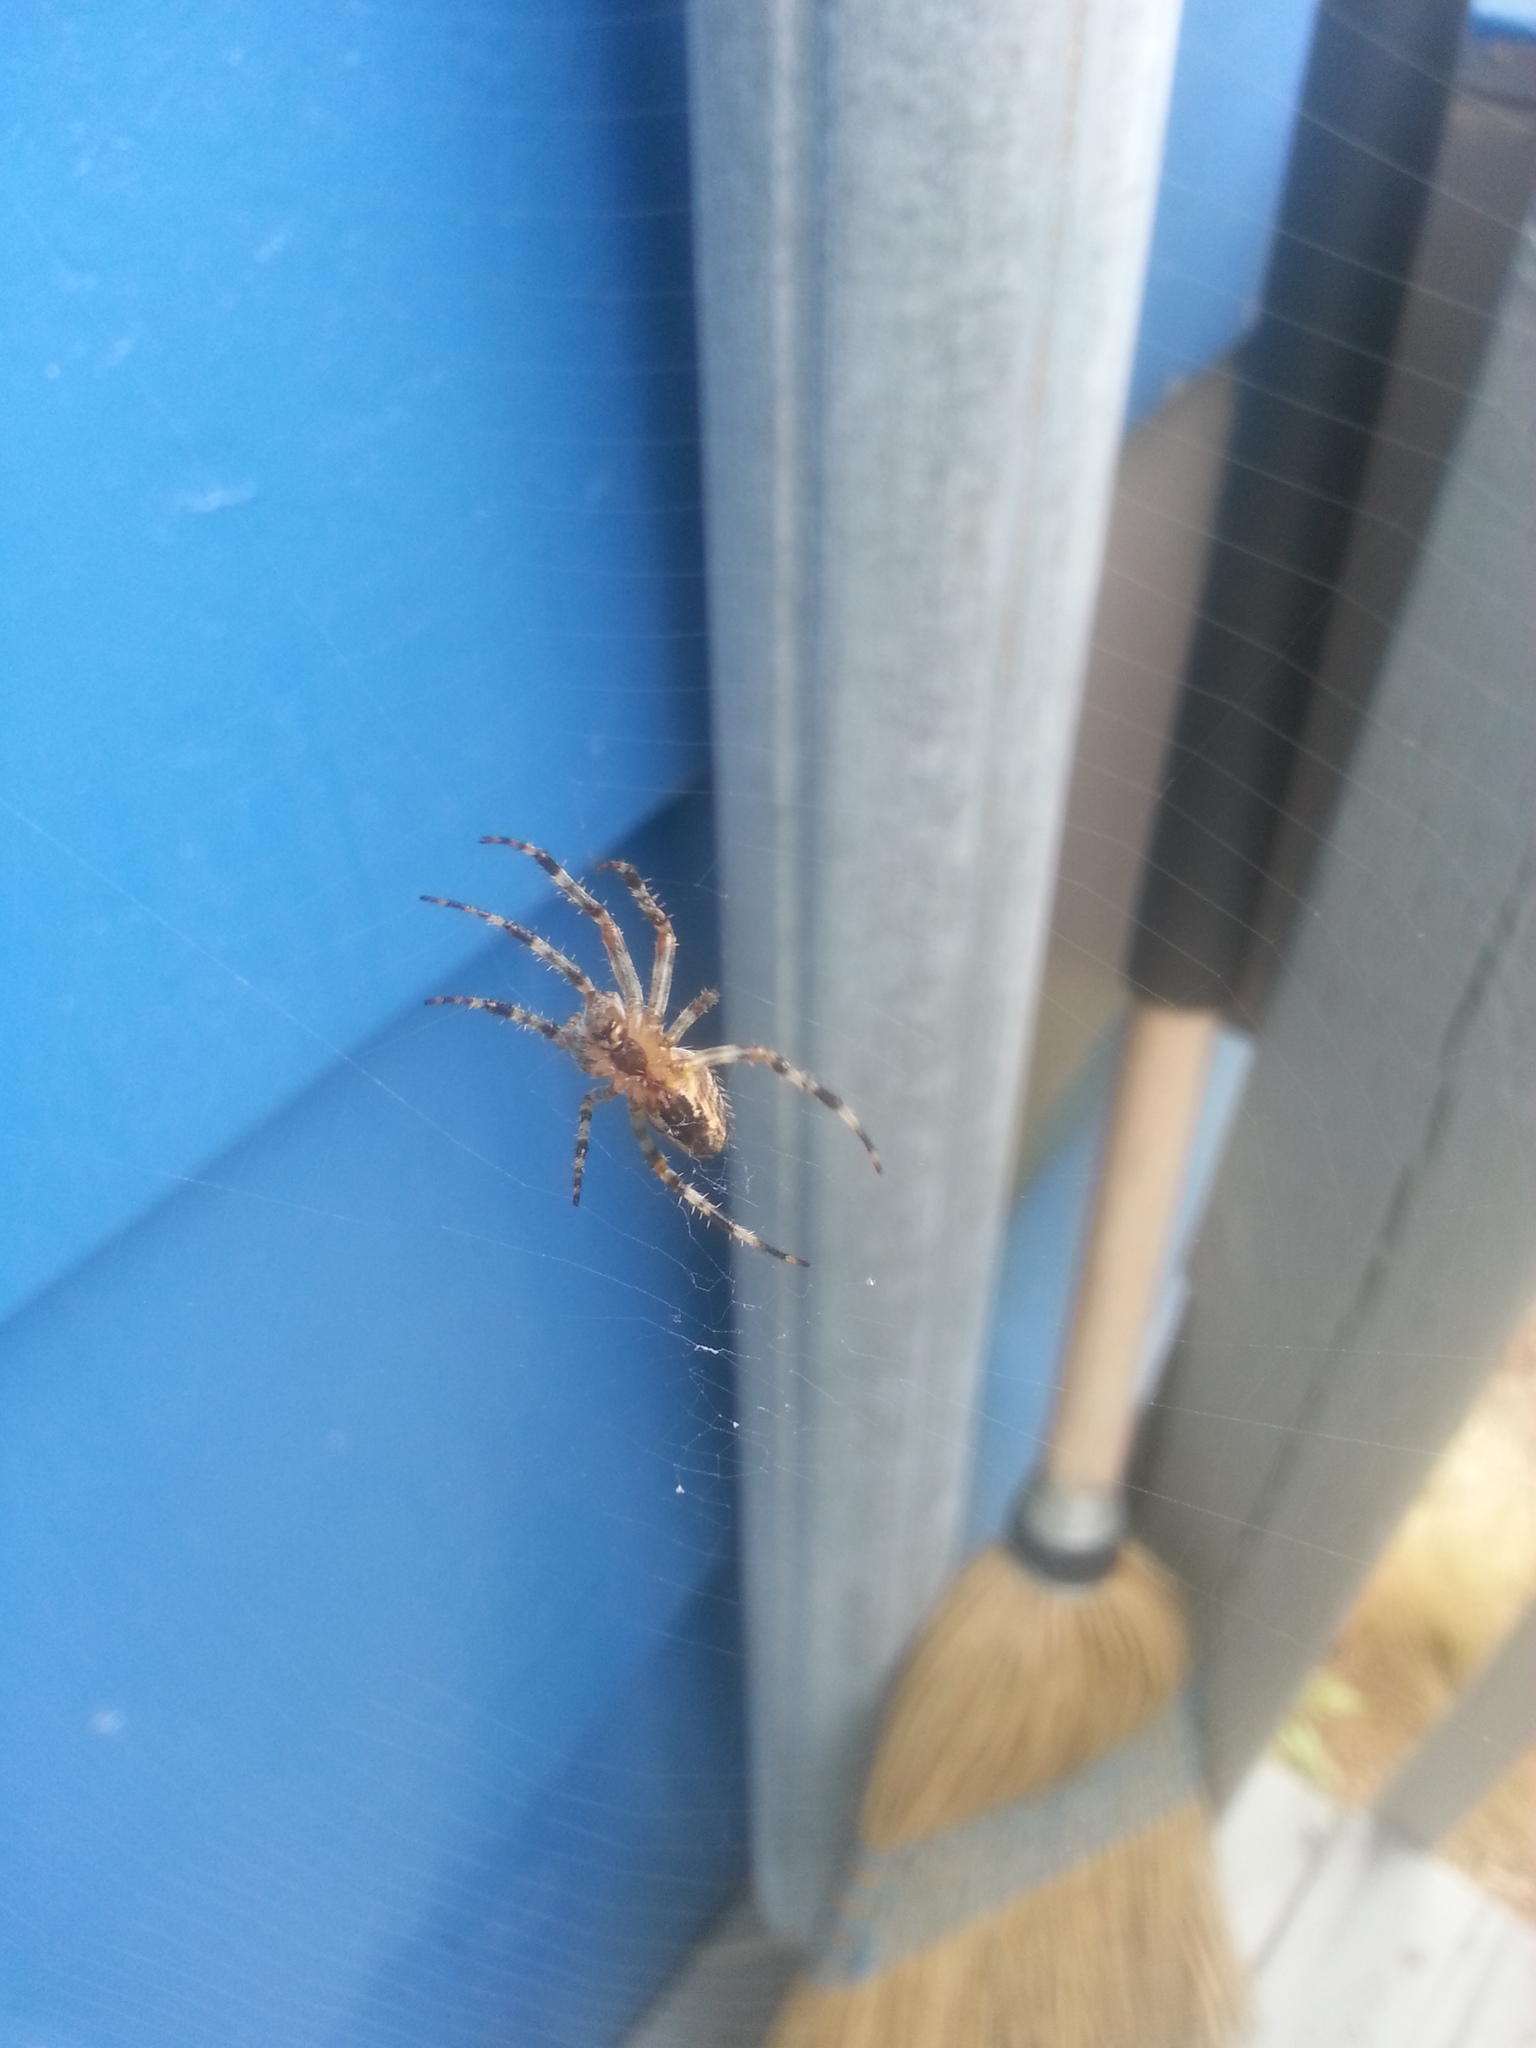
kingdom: Animalia
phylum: Arthropoda
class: Arachnida
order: Araneae
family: Araneidae
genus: Araneus
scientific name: Araneus diadematus
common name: Cross orbweaver
